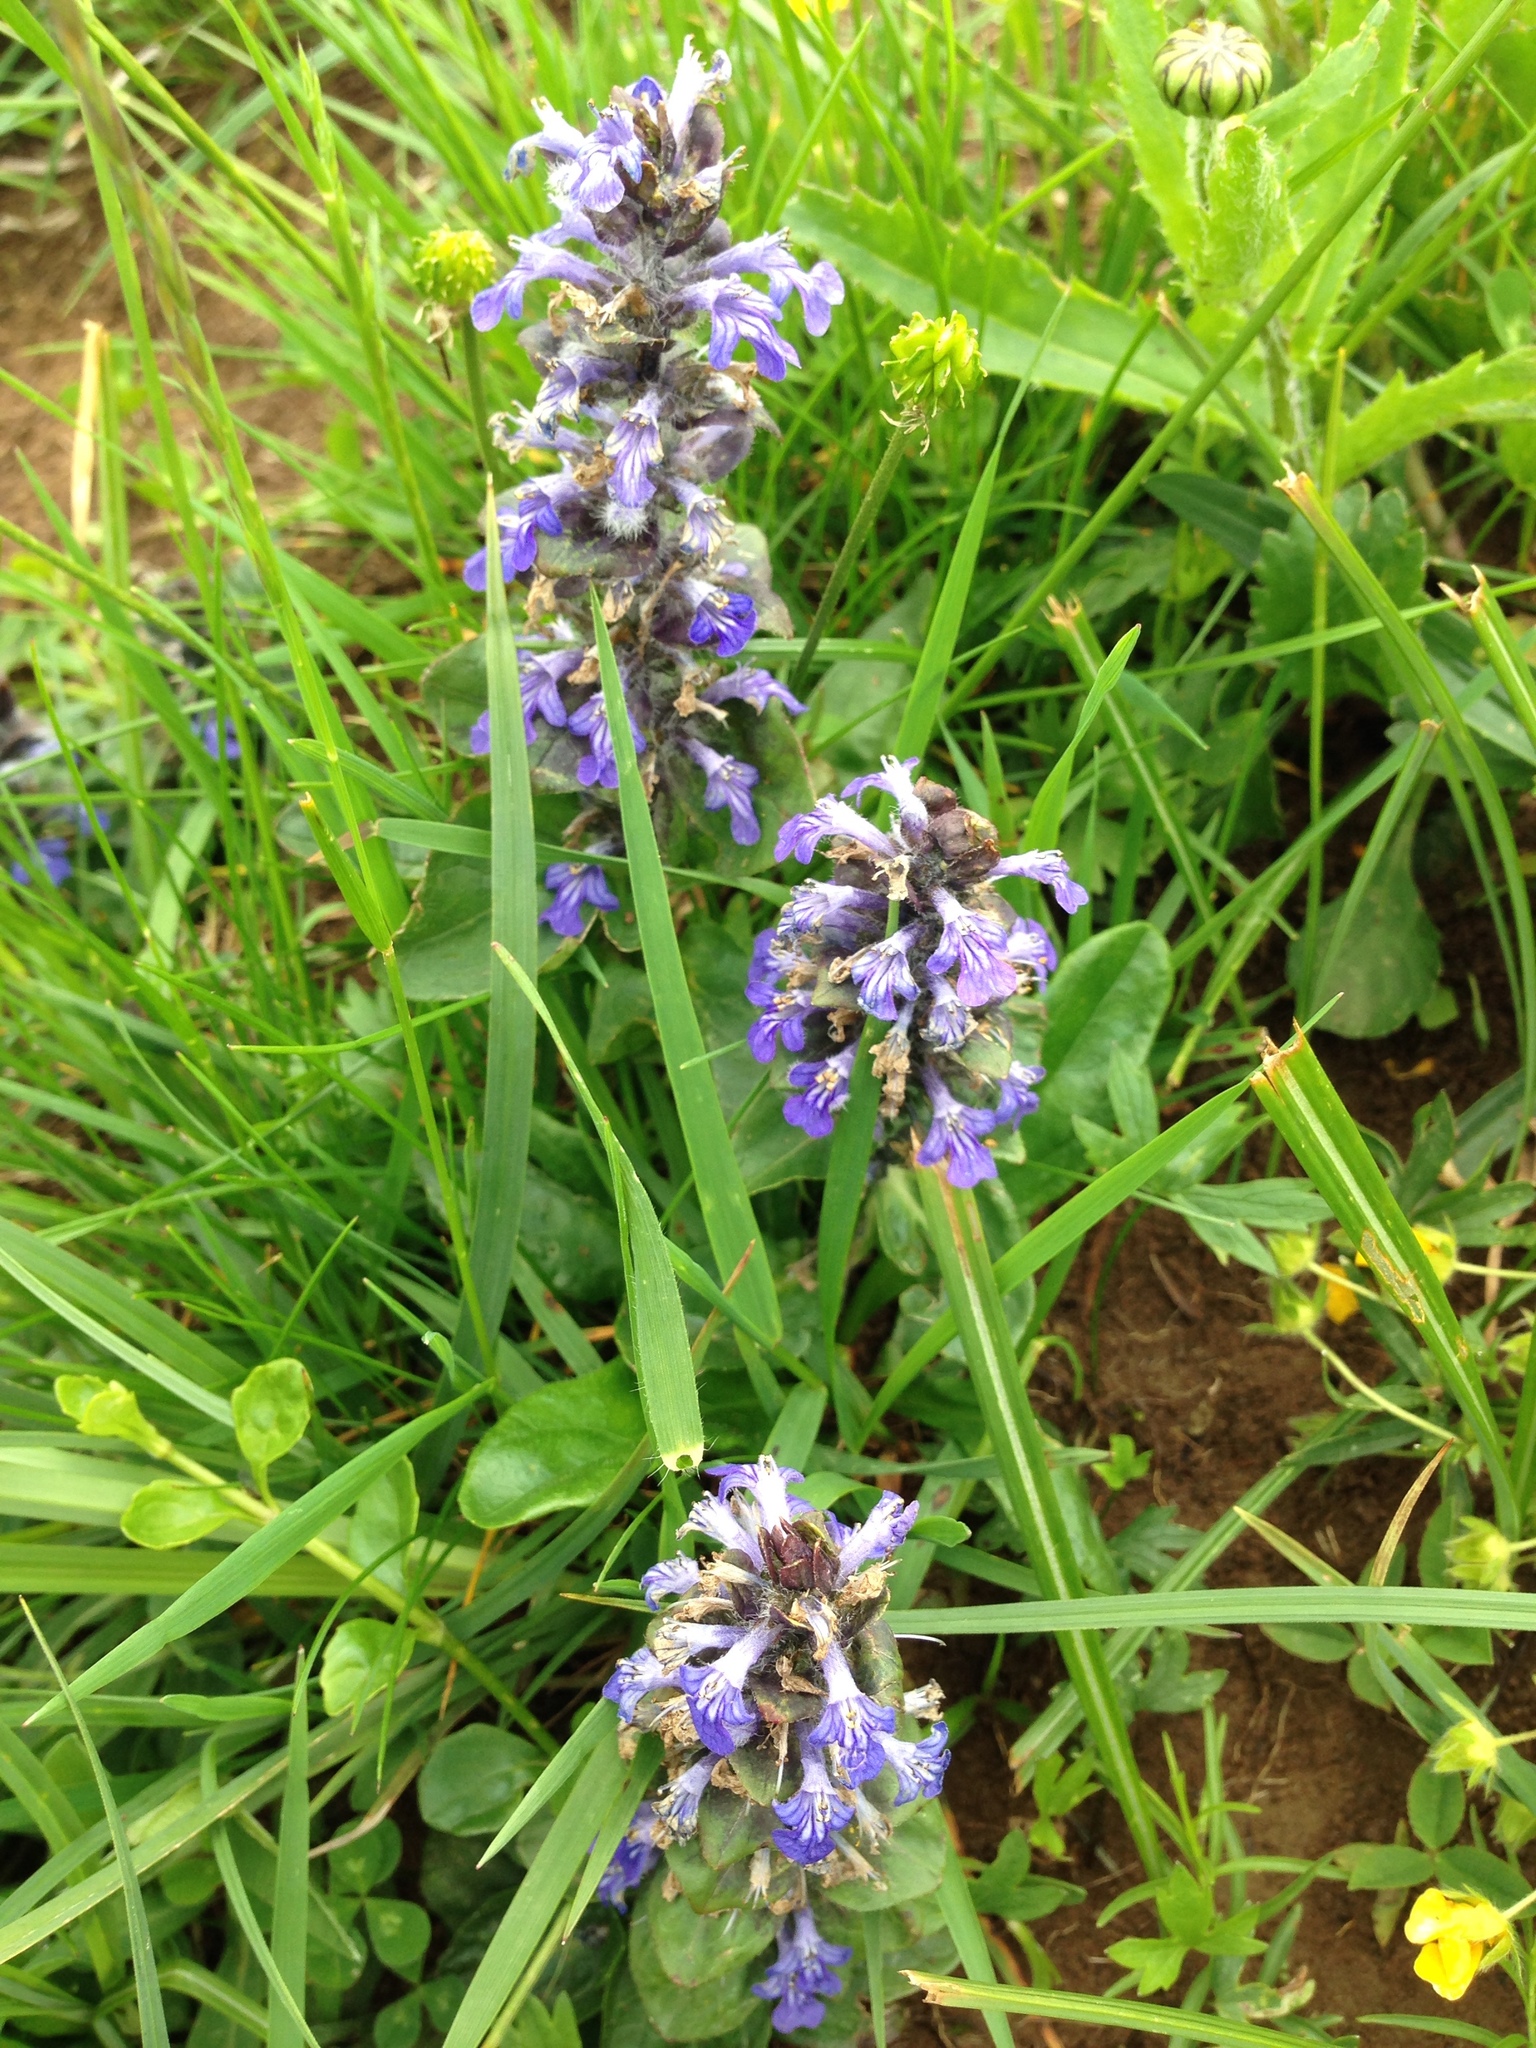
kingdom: Plantae
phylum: Tracheophyta
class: Magnoliopsida
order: Lamiales
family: Lamiaceae
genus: Ajuga
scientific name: Ajuga reptans
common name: Bugle
